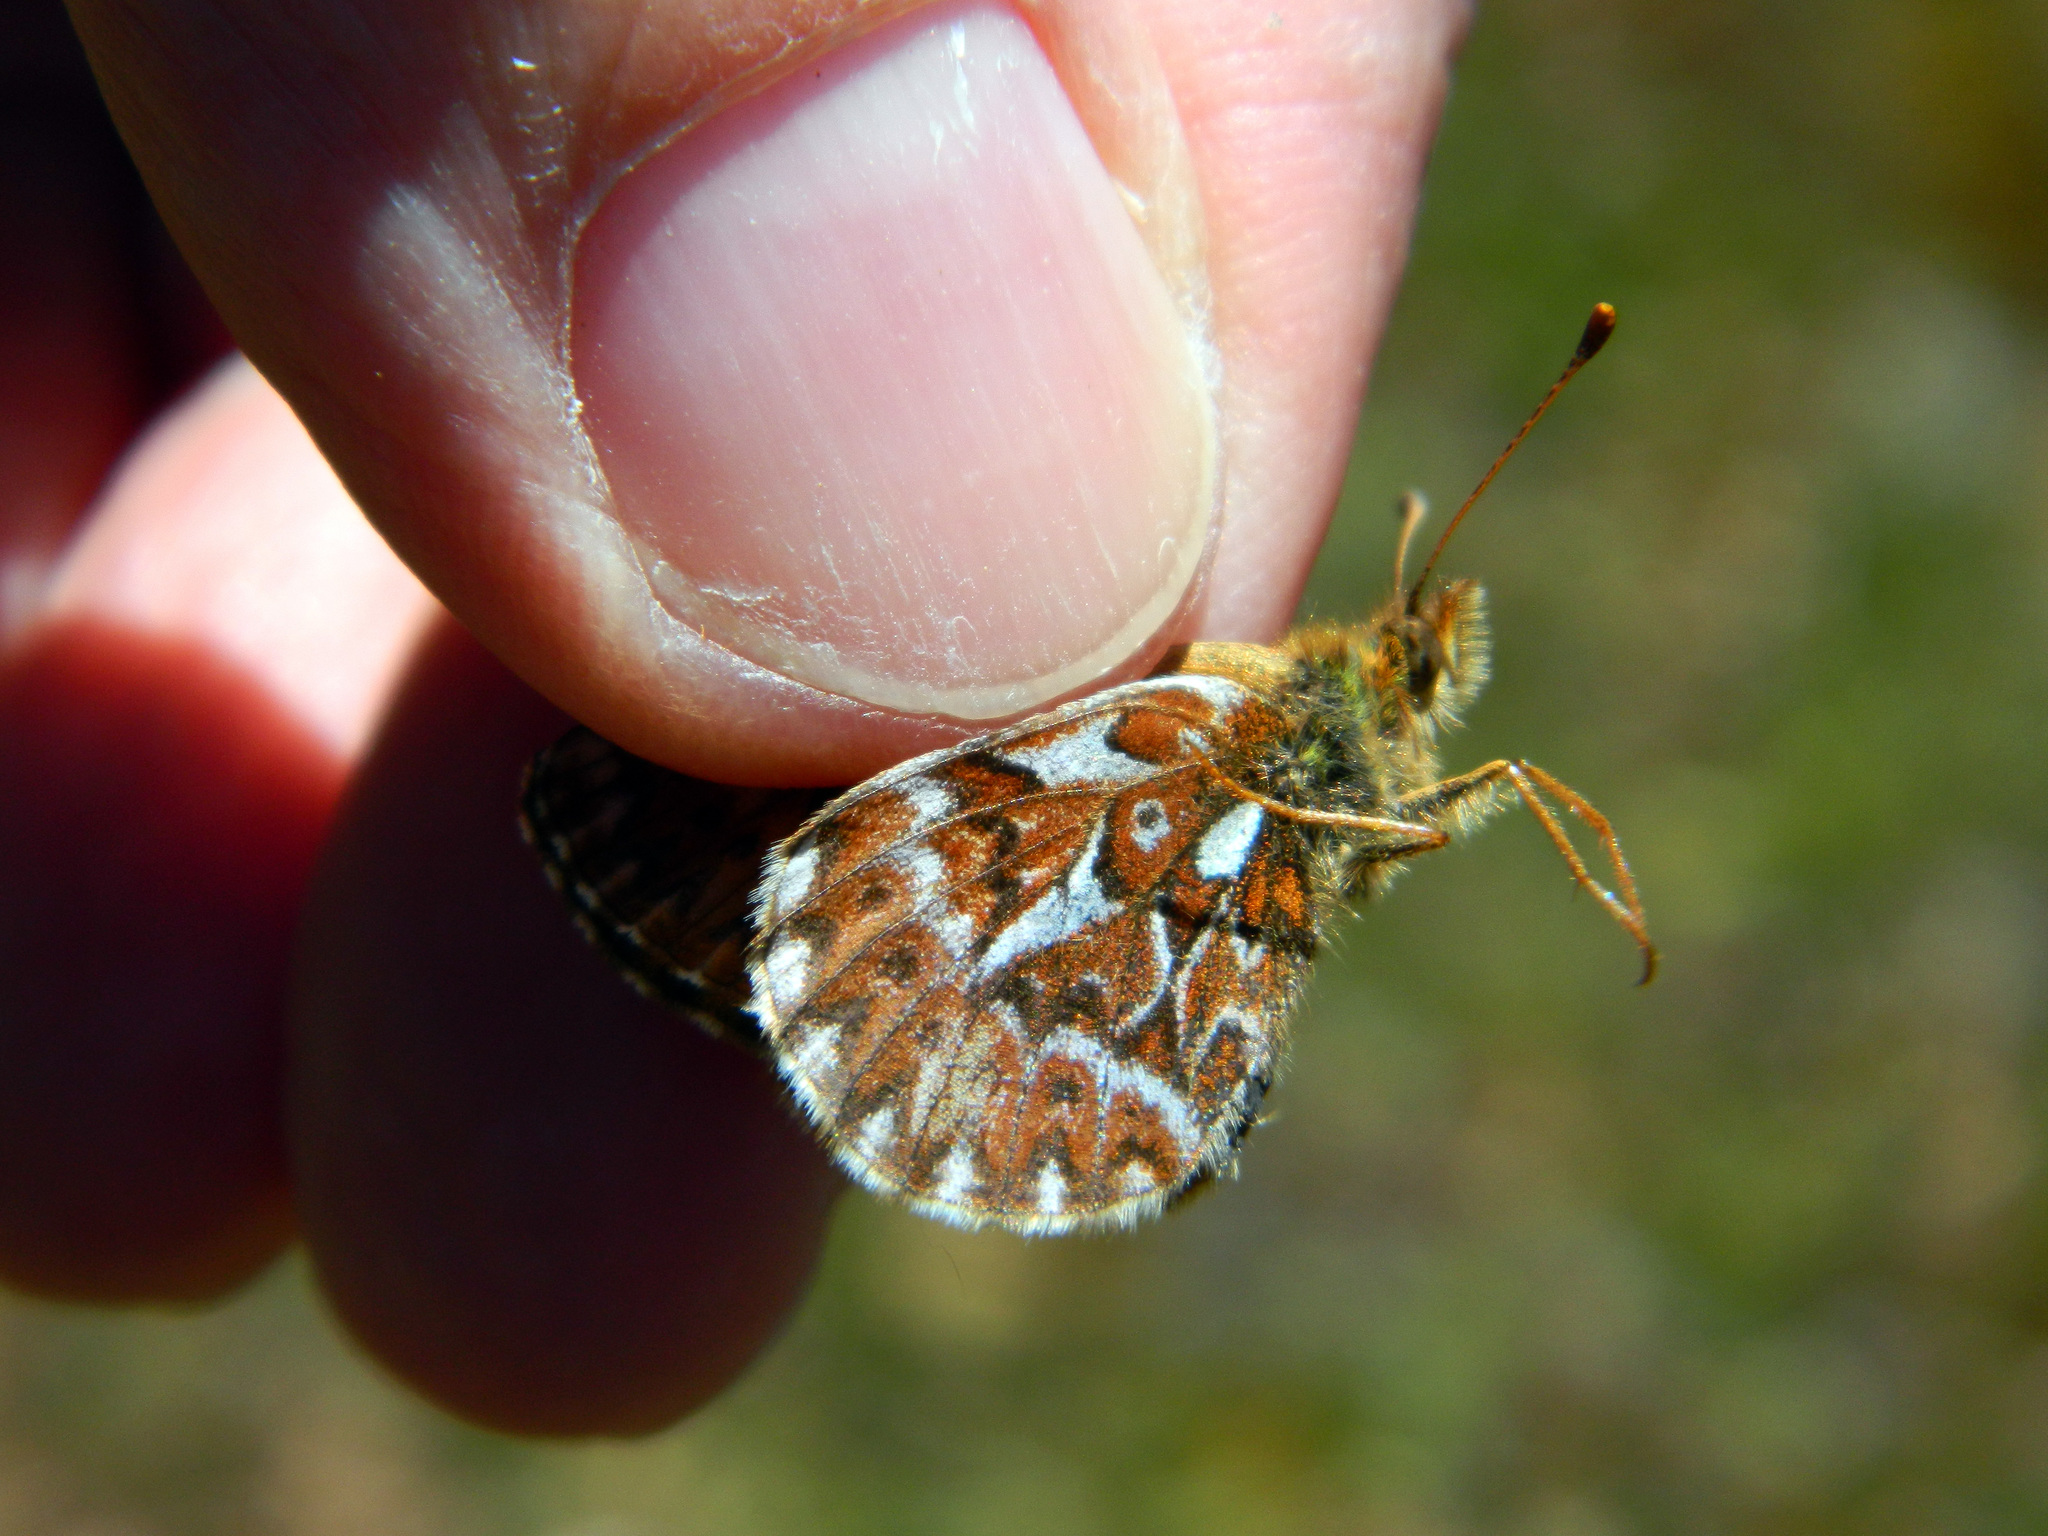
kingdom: Animalia
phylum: Arthropoda
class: Insecta
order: Lepidoptera
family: Nymphalidae
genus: Boloria
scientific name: Boloria freija
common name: Freija fritillary
